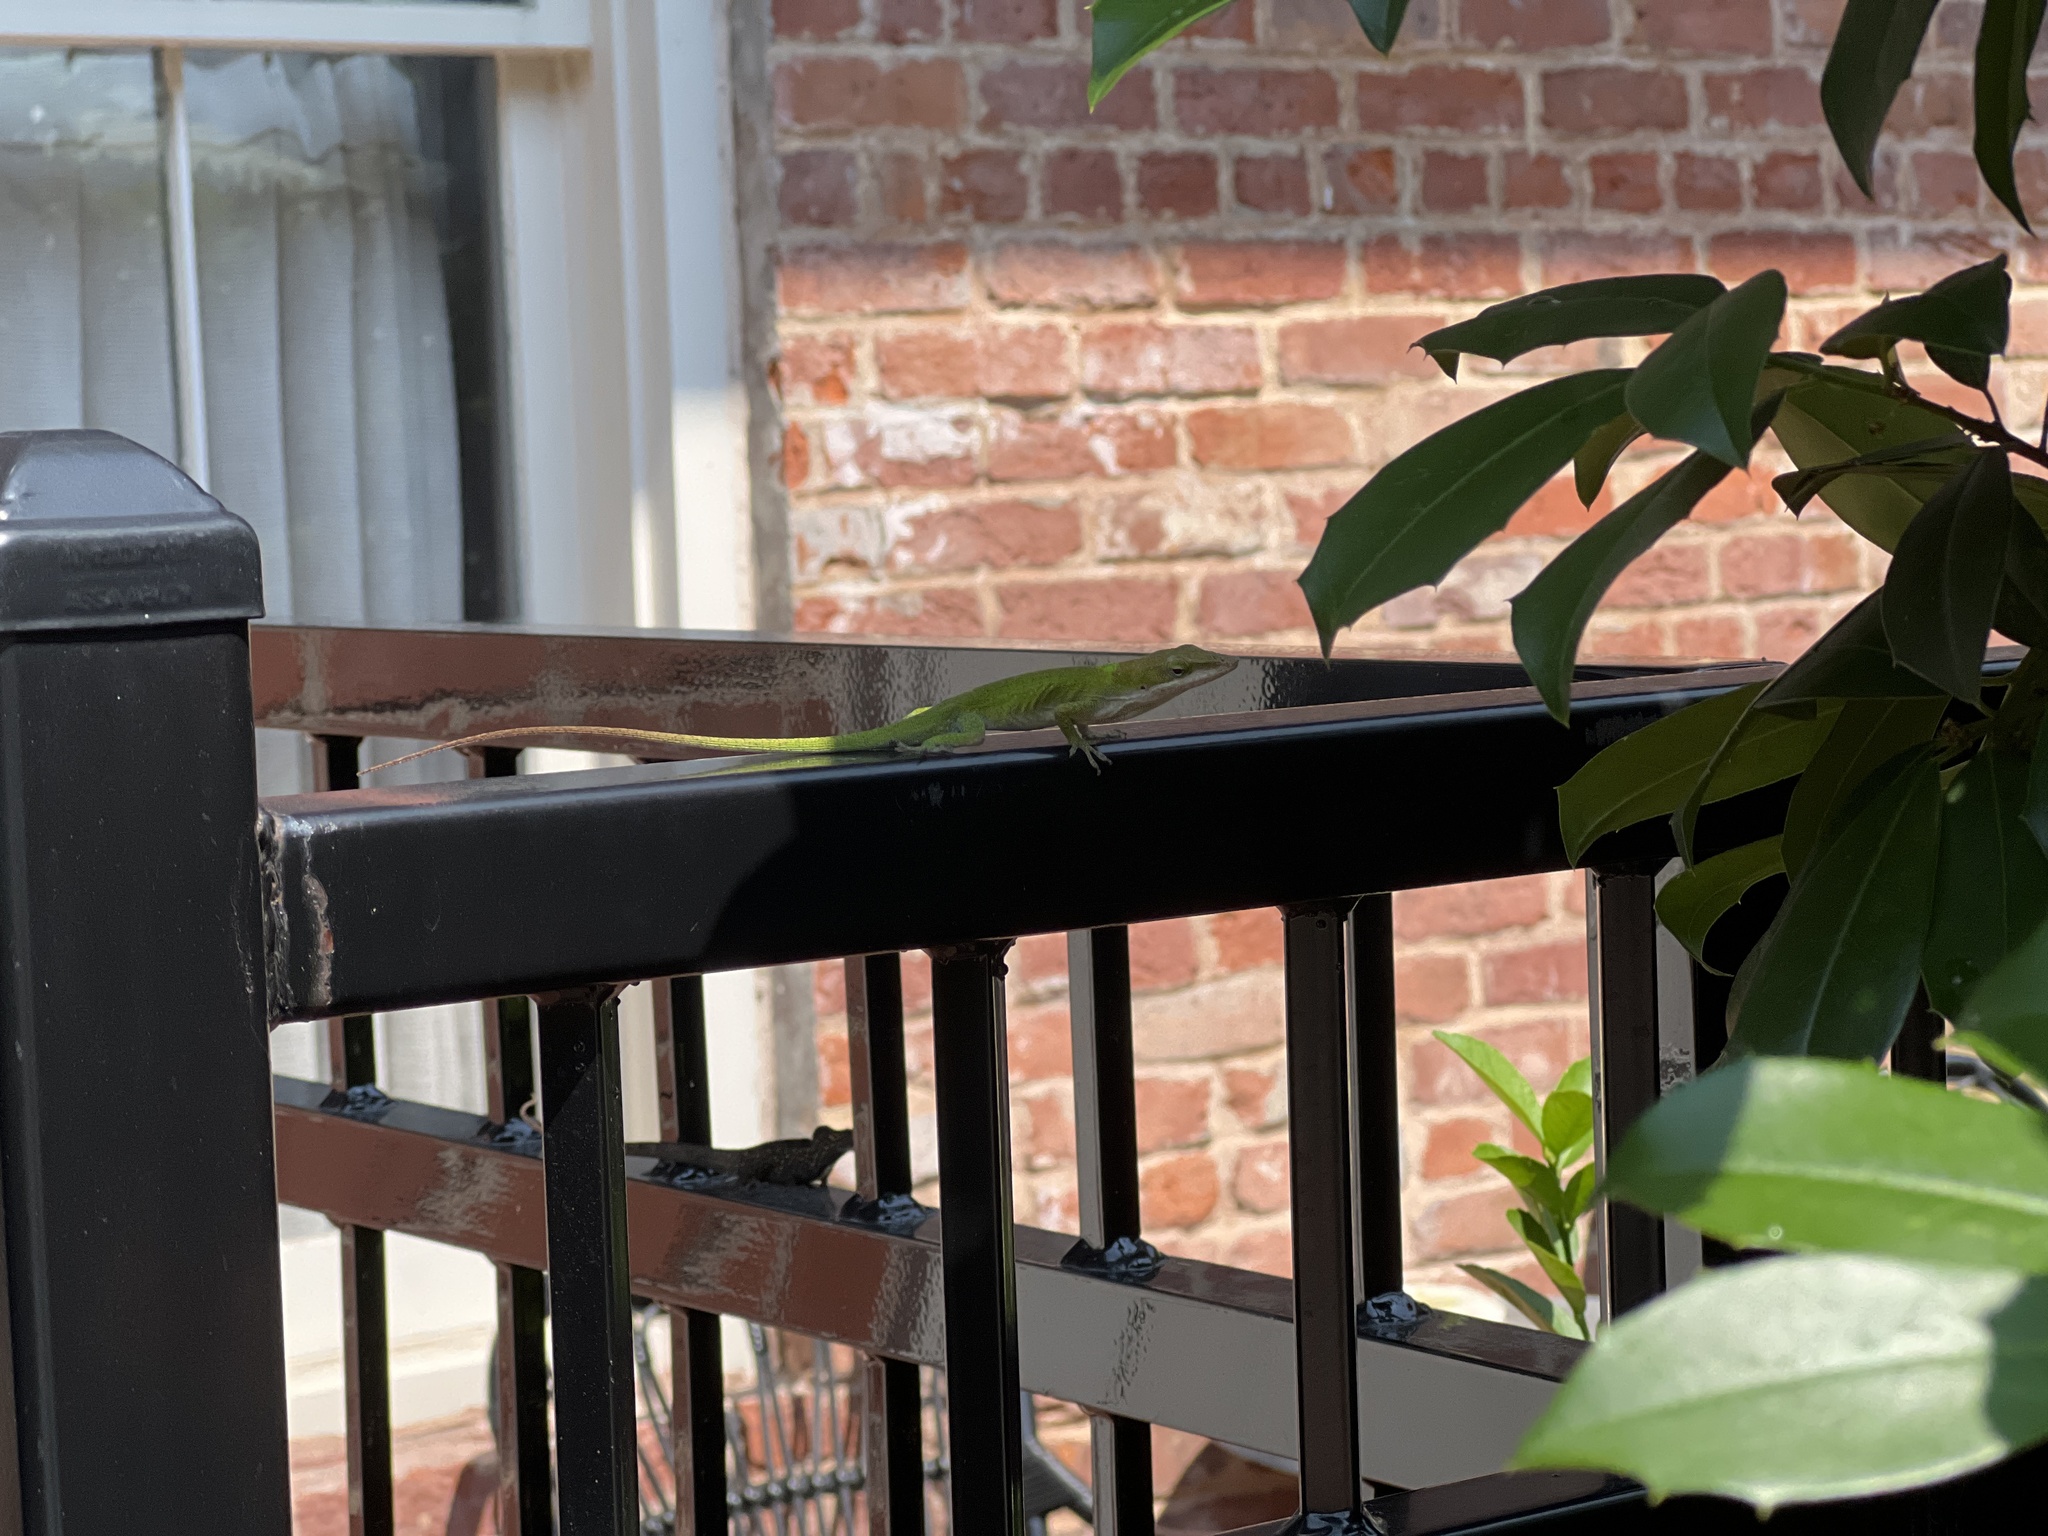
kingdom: Animalia
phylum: Chordata
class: Squamata
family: Dactyloidae
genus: Anolis
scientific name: Anolis carolinensis
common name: Green anole
